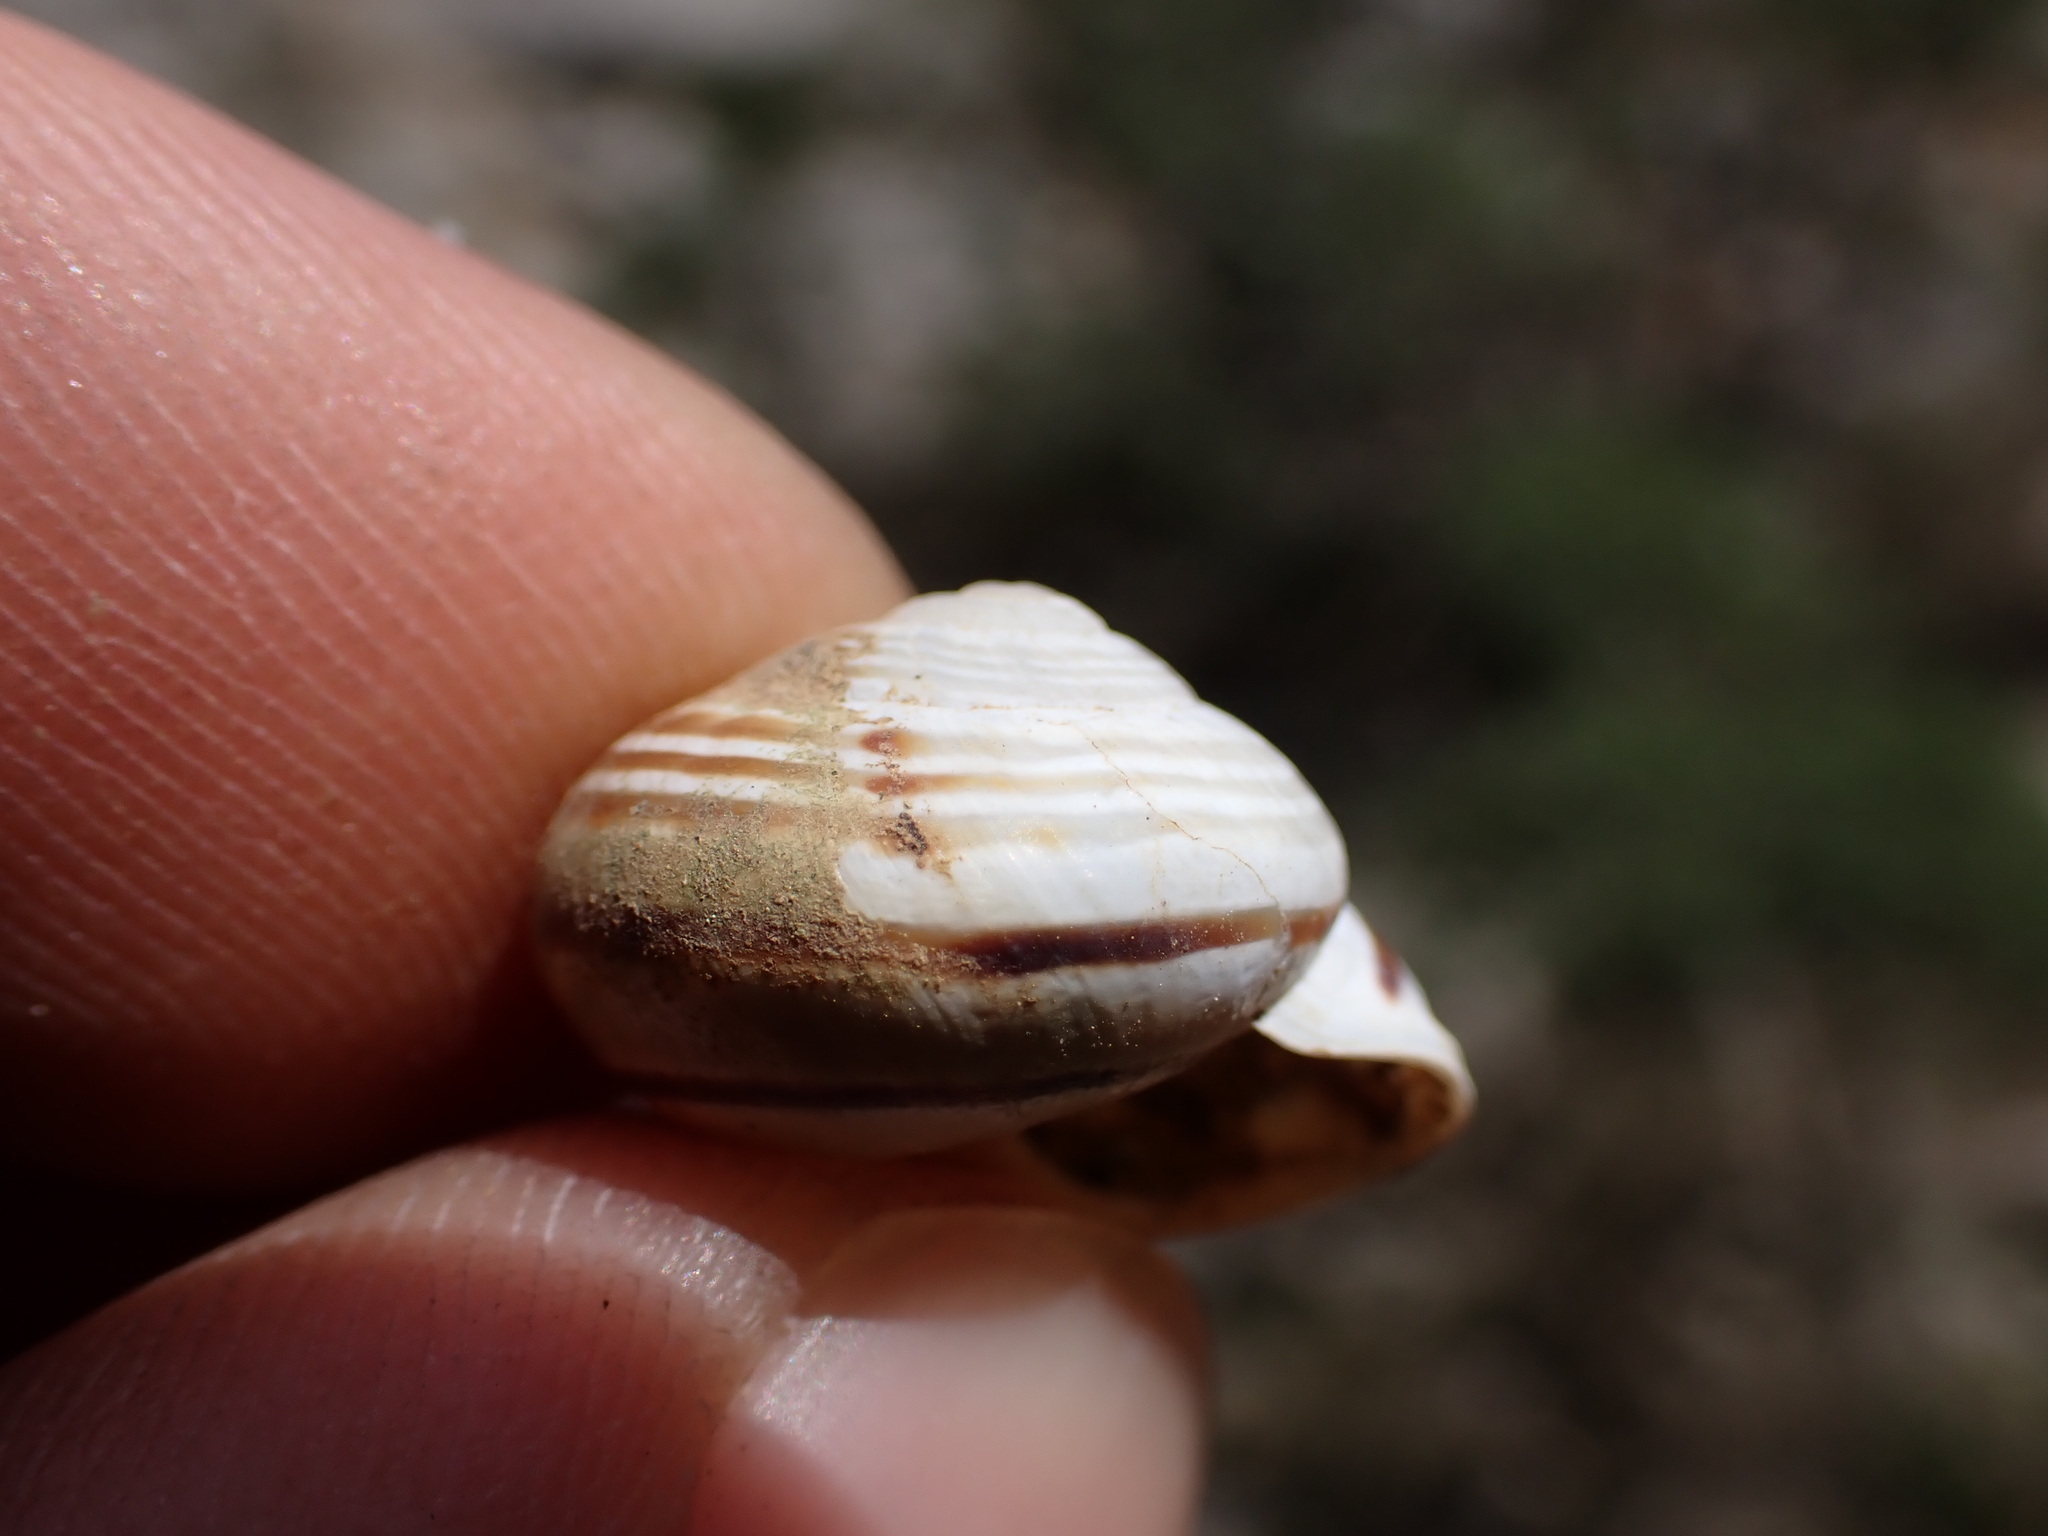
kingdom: Animalia
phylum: Mollusca
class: Gastropoda
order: Stylommatophora
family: Helicidae
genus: Pseudotachea
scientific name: Pseudotachea splendida
